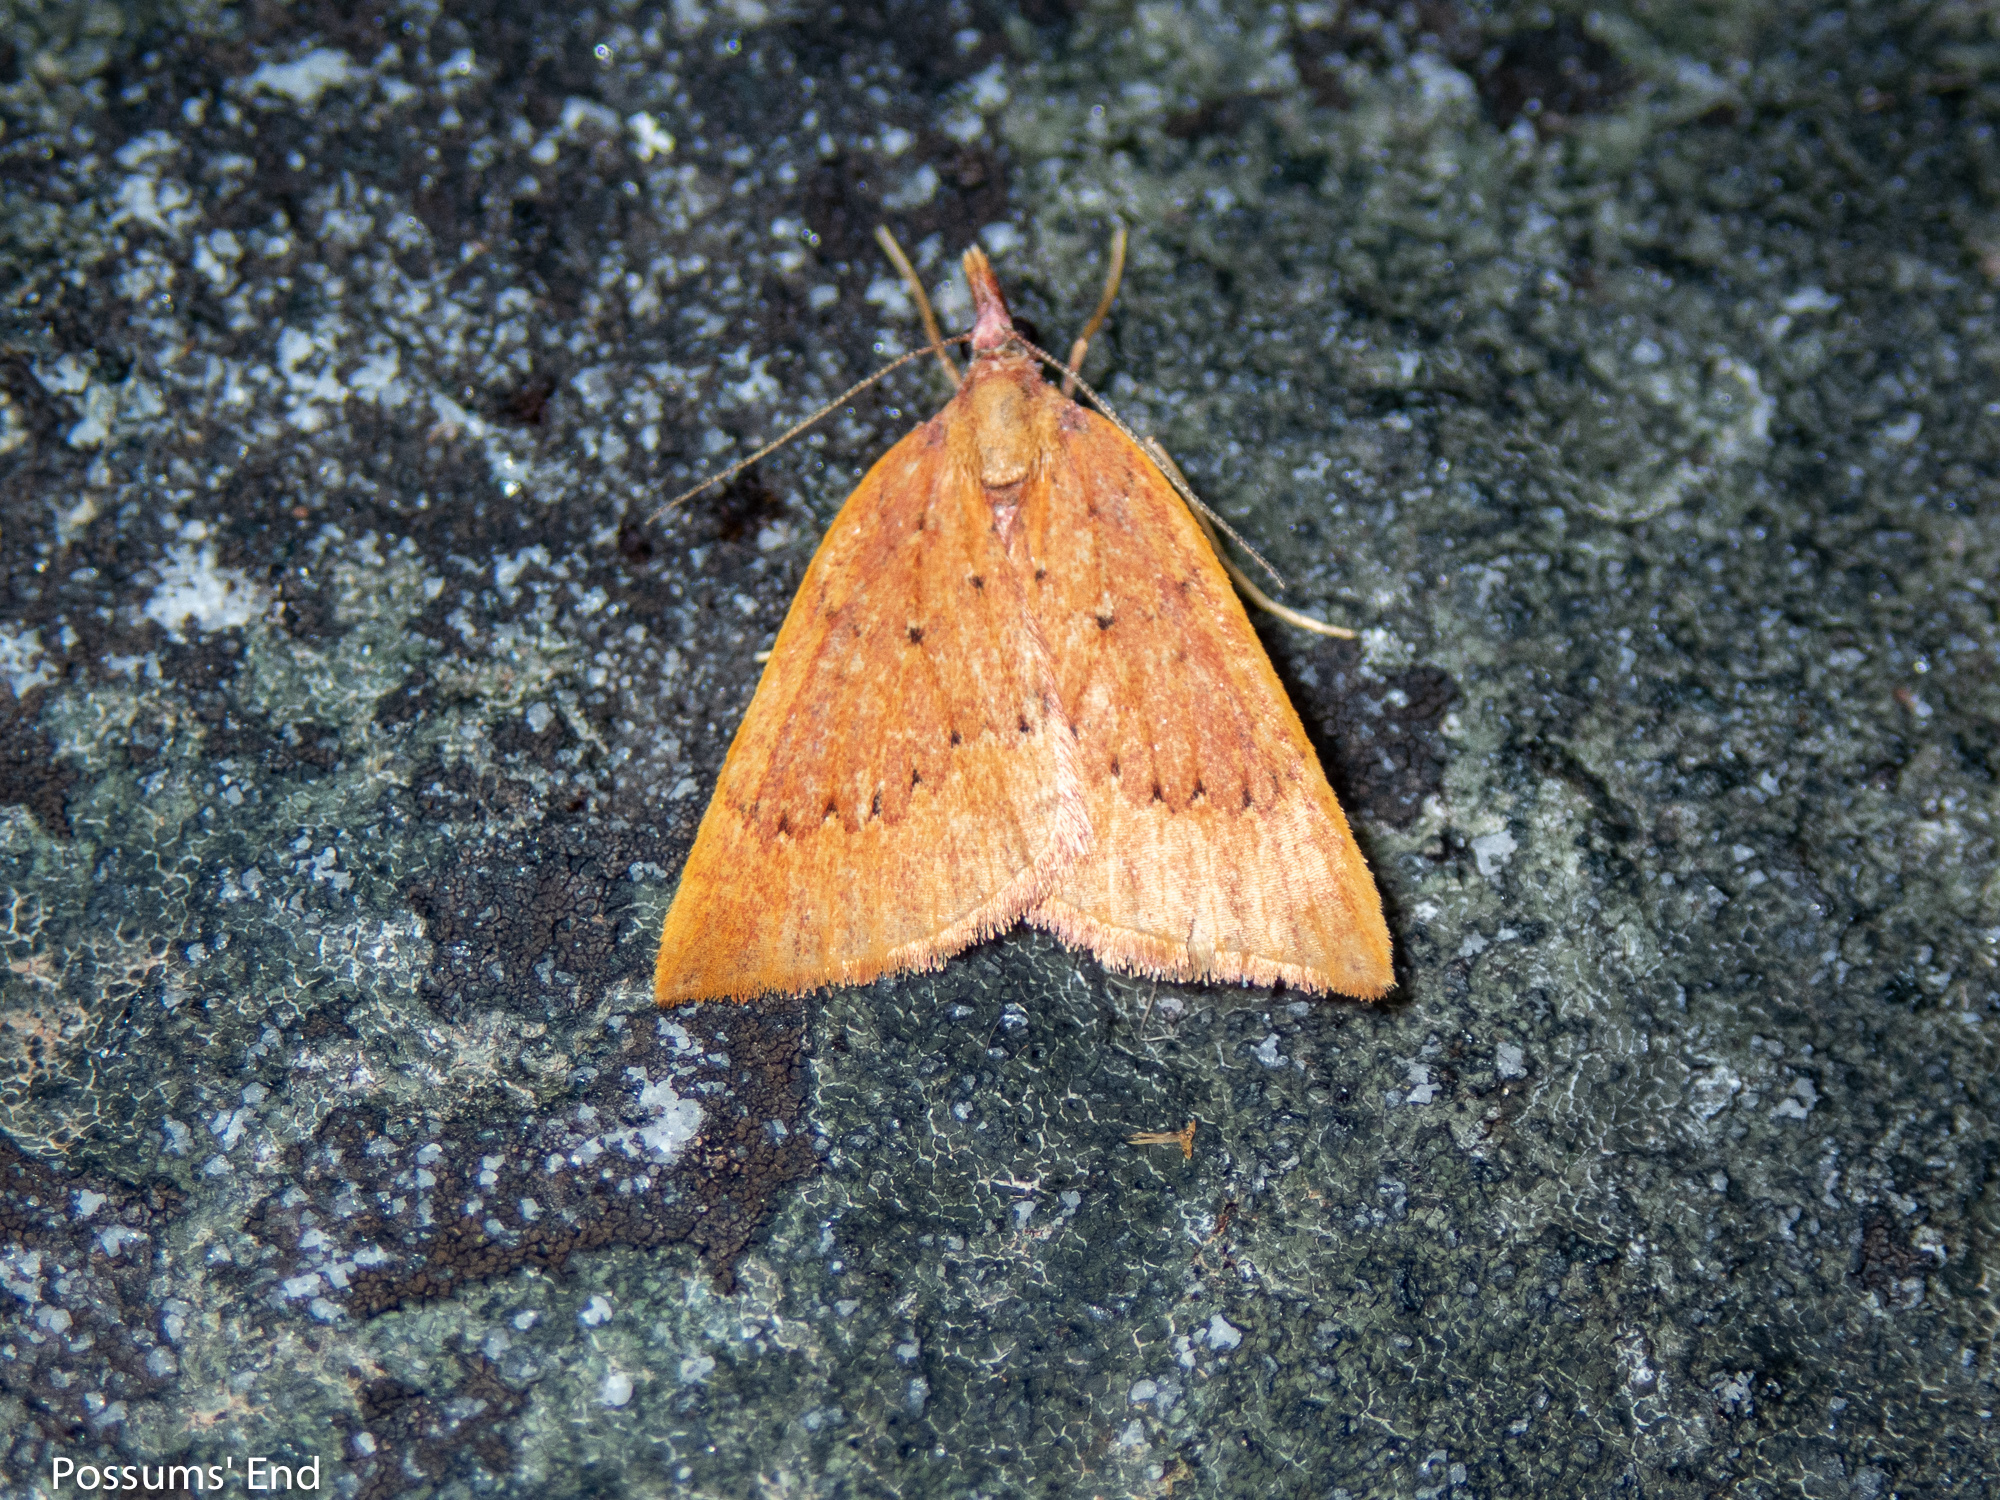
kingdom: Animalia
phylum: Arthropoda
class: Insecta
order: Lepidoptera
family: Geometridae
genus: Xanthorhoe
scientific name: Xanthorhoe occulta
